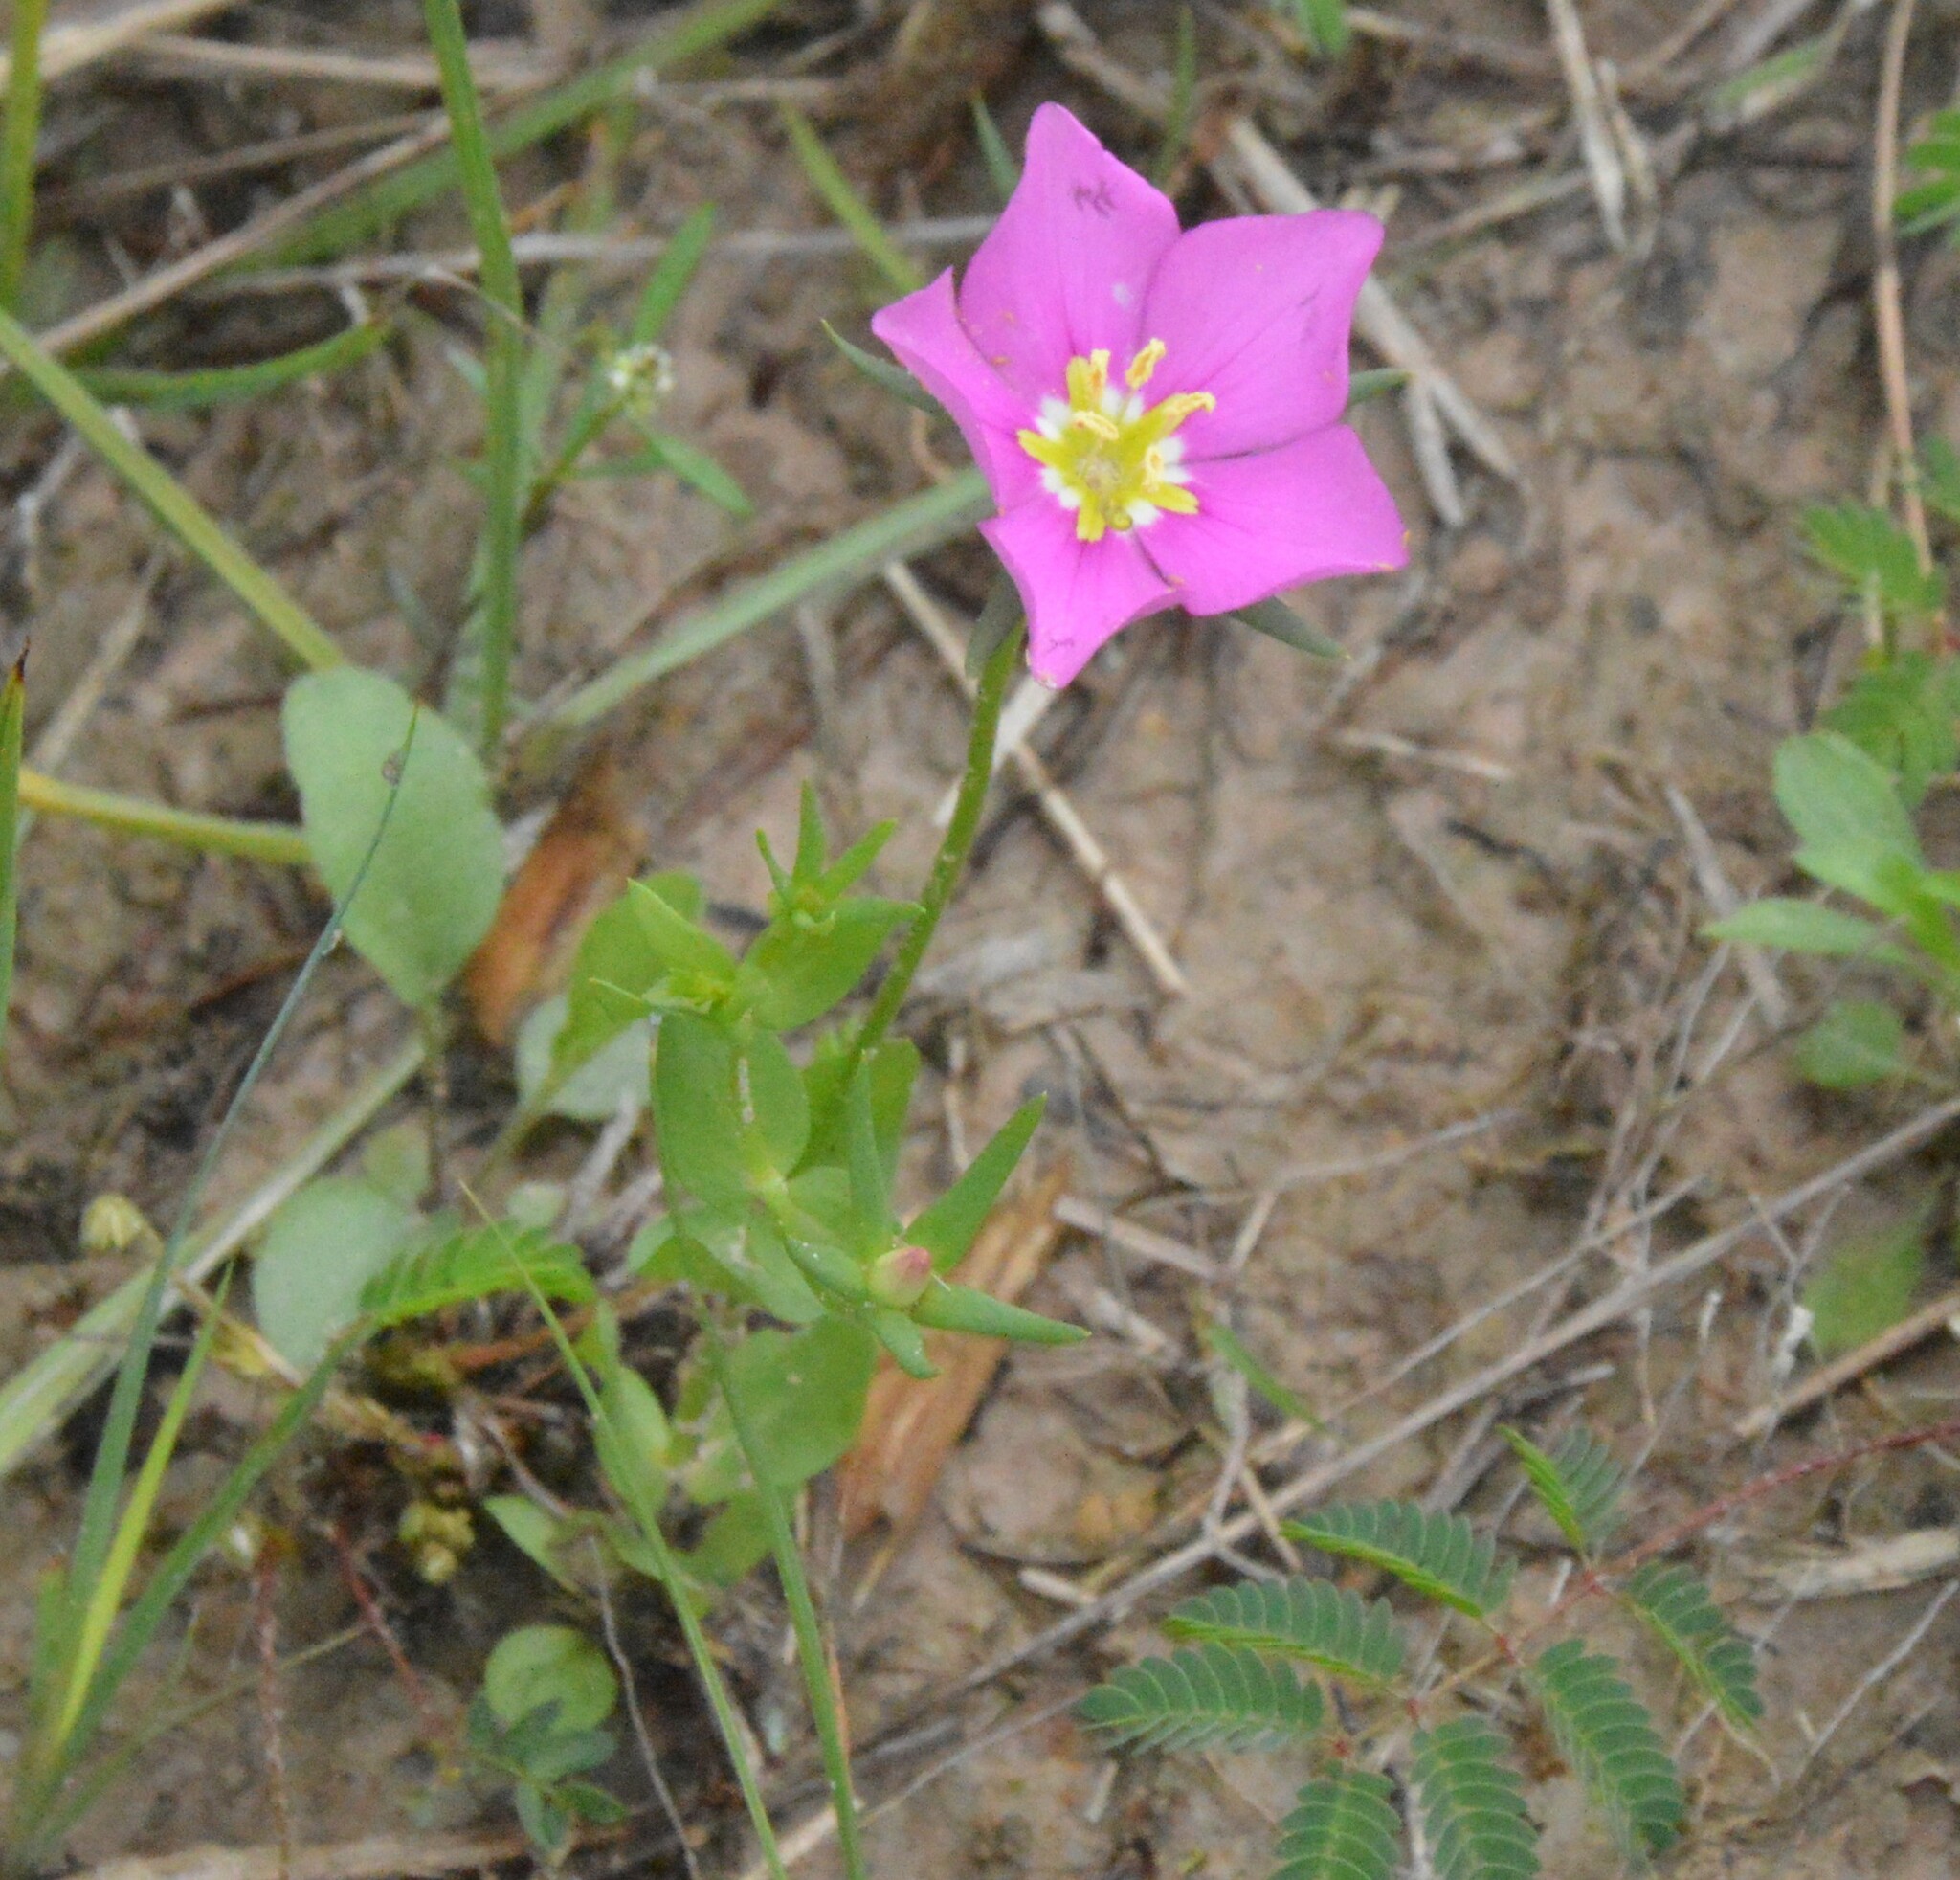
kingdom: Plantae
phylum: Tracheophyta
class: Magnoliopsida
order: Gentianales
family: Gentianaceae
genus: Sabatia
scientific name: Sabatia campestris
